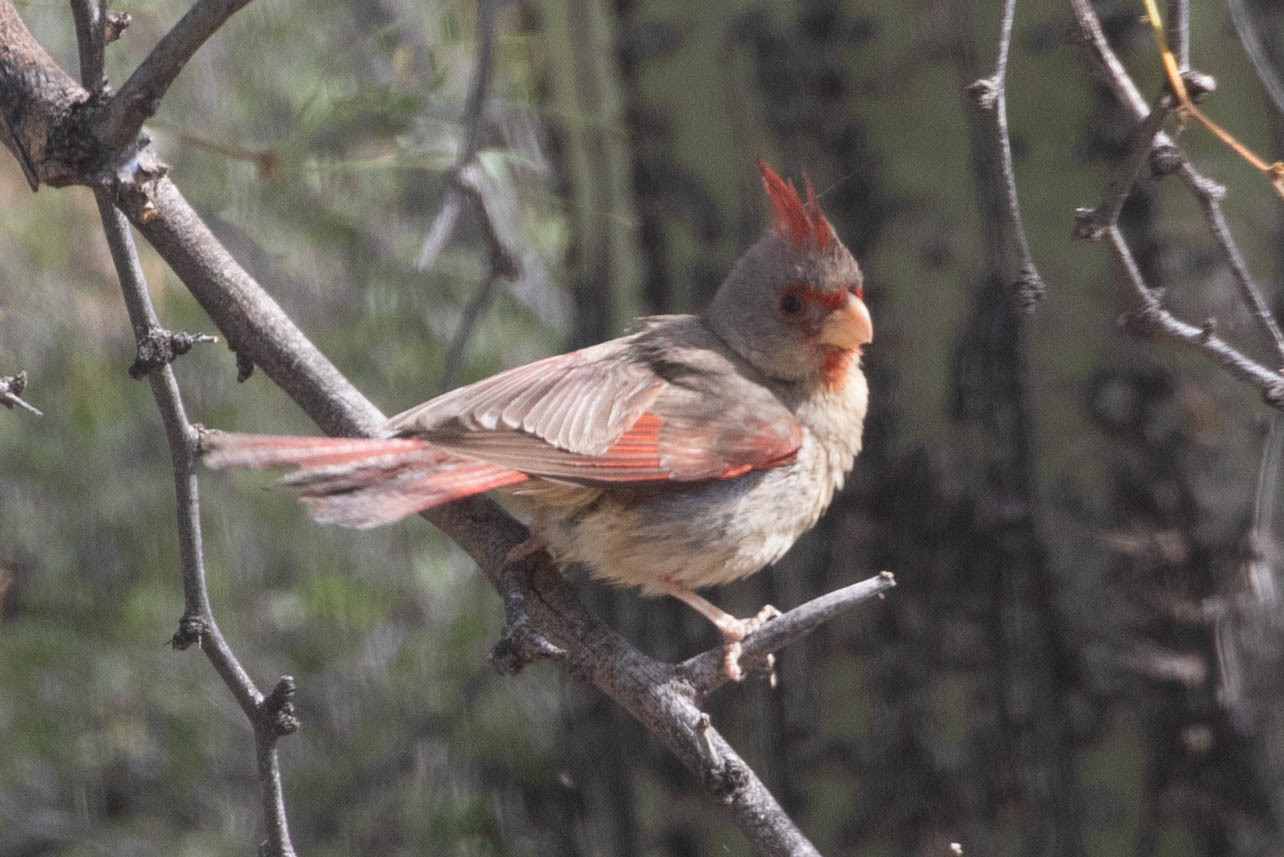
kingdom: Animalia
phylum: Chordata
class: Aves
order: Passeriformes
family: Cardinalidae
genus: Cardinalis
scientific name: Cardinalis sinuatus
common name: Pyrrhuloxia
